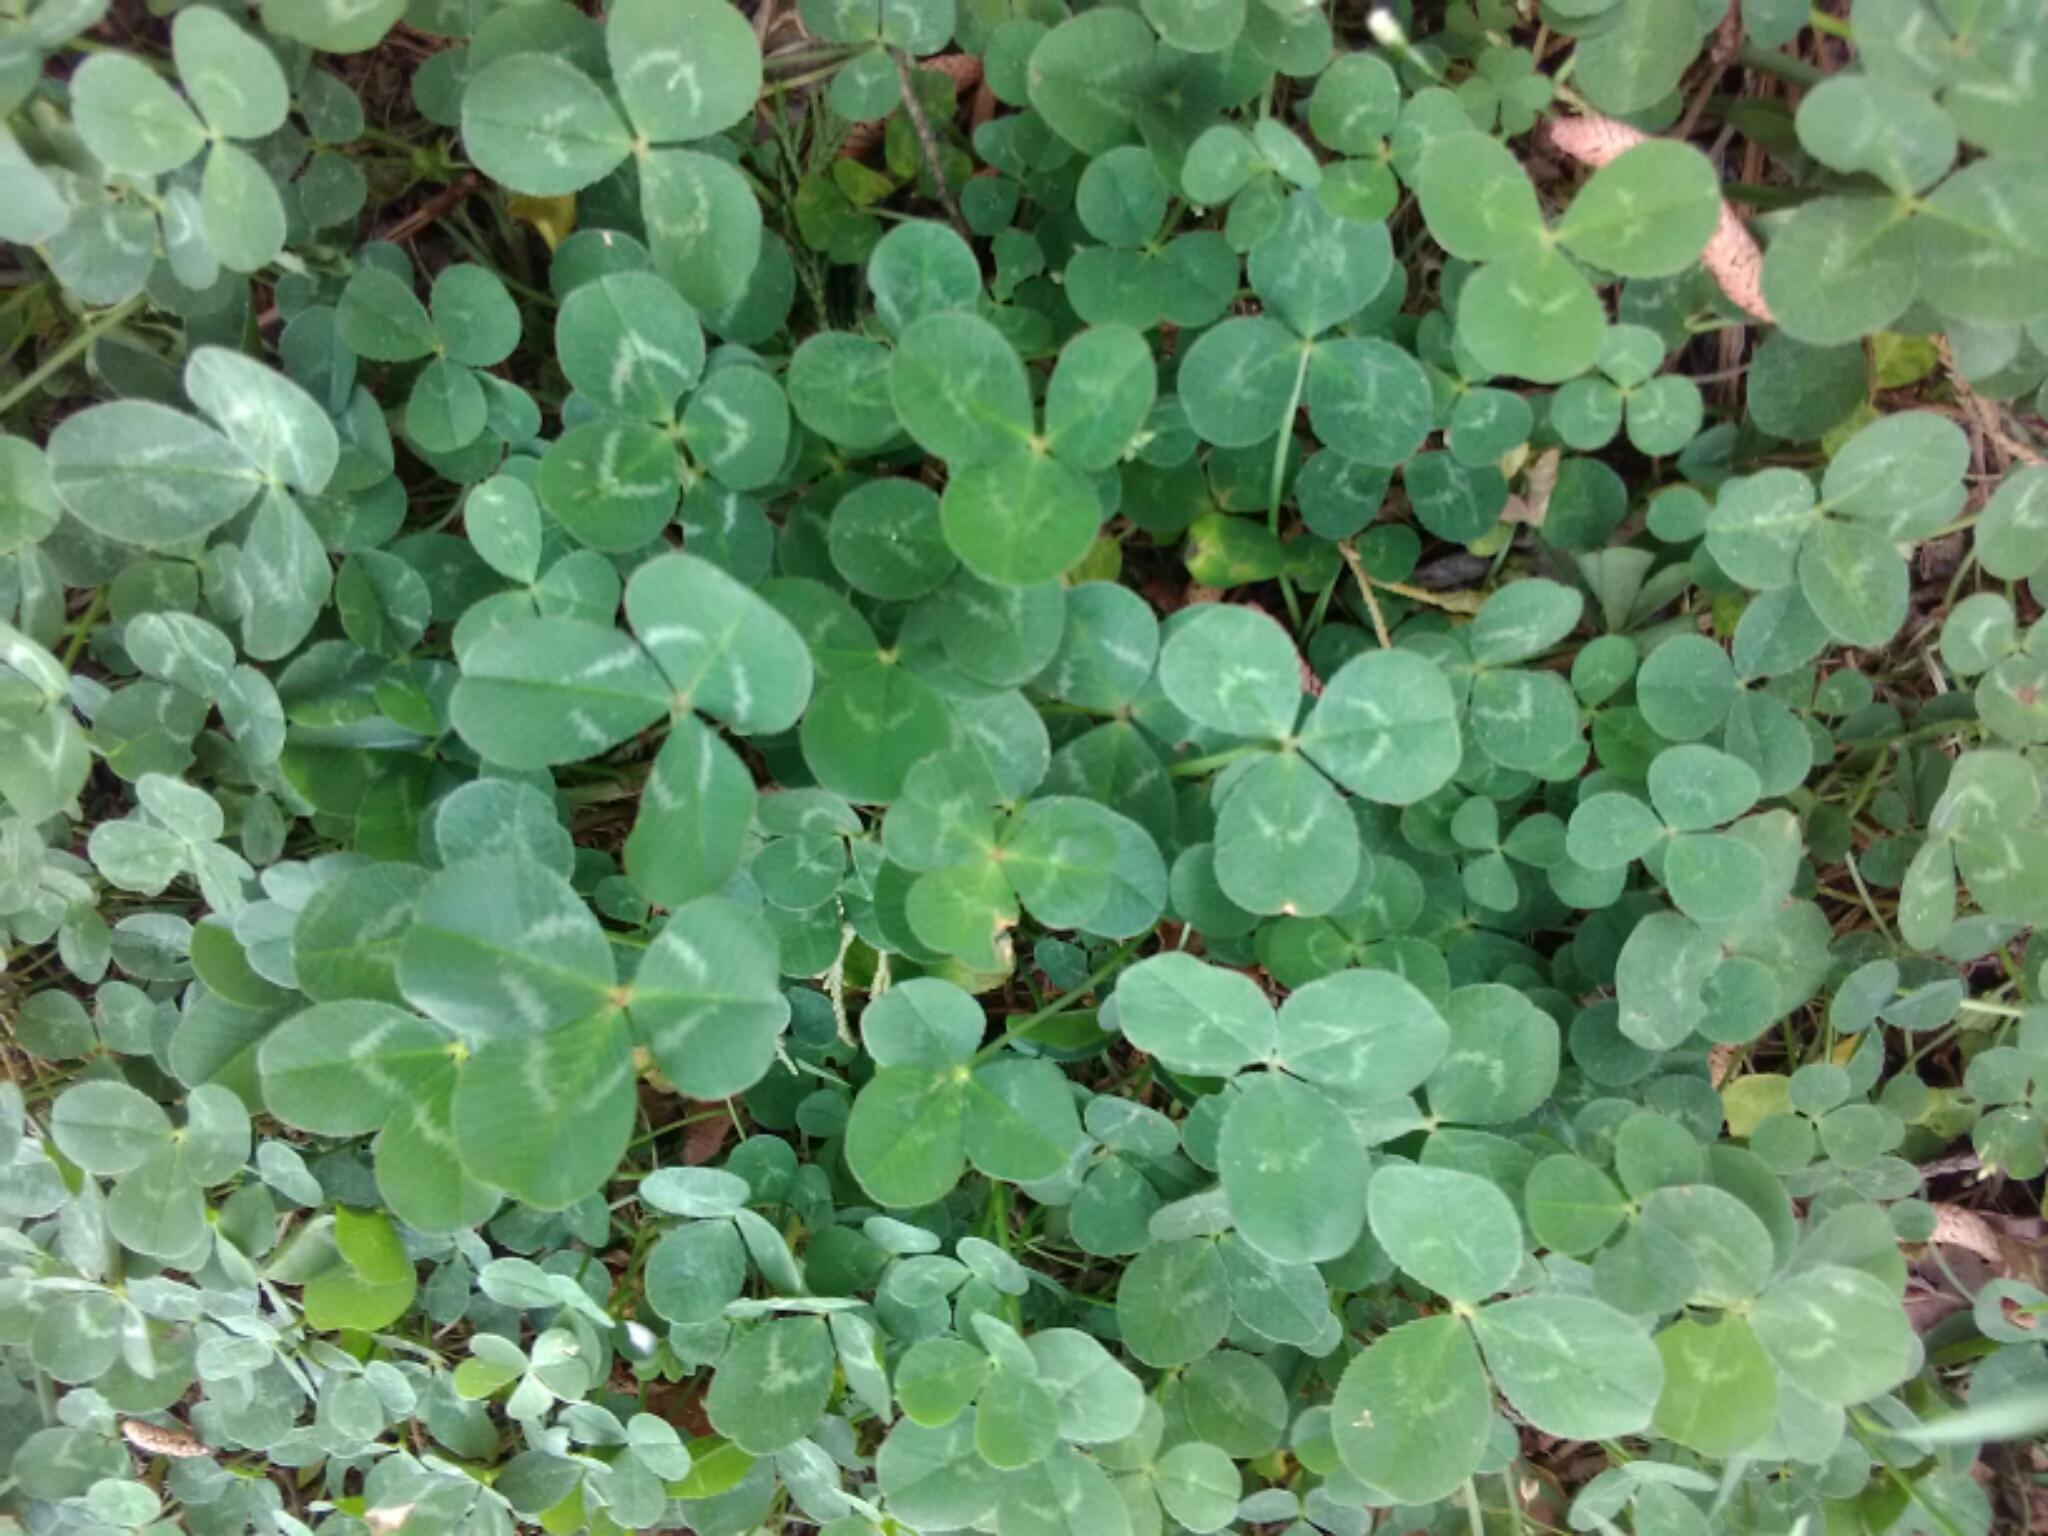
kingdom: Plantae
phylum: Tracheophyta
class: Magnoliopsida
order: Fabales
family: Fabaceae
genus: Trifolium
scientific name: Trifolium repens
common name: White clover
